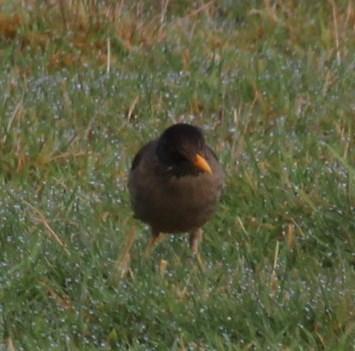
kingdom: Animalia
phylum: Chordata
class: Aves
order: Passeriformes
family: Turdidae
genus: Turdus
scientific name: Turdus falcklandii
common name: Austral thrush
